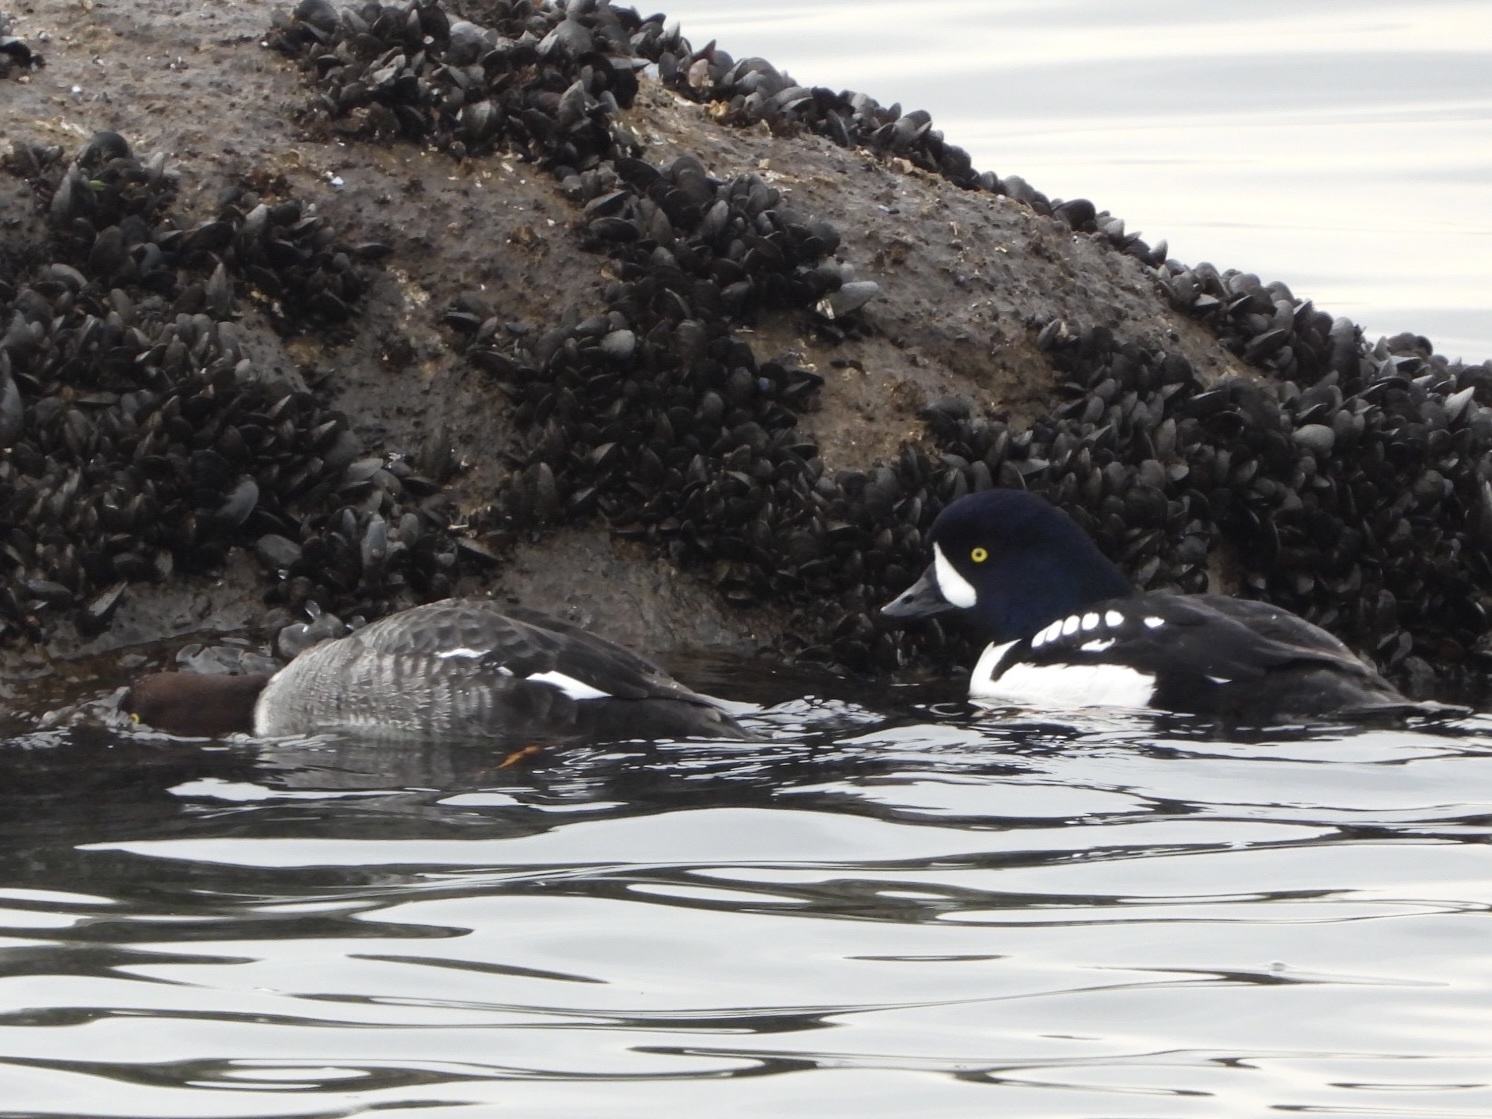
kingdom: Animalia
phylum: Chordata
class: Aves
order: Anseriformes
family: Anatidae
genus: Bucephala
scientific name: Bucephala islandica
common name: Barrow's goldeneye
